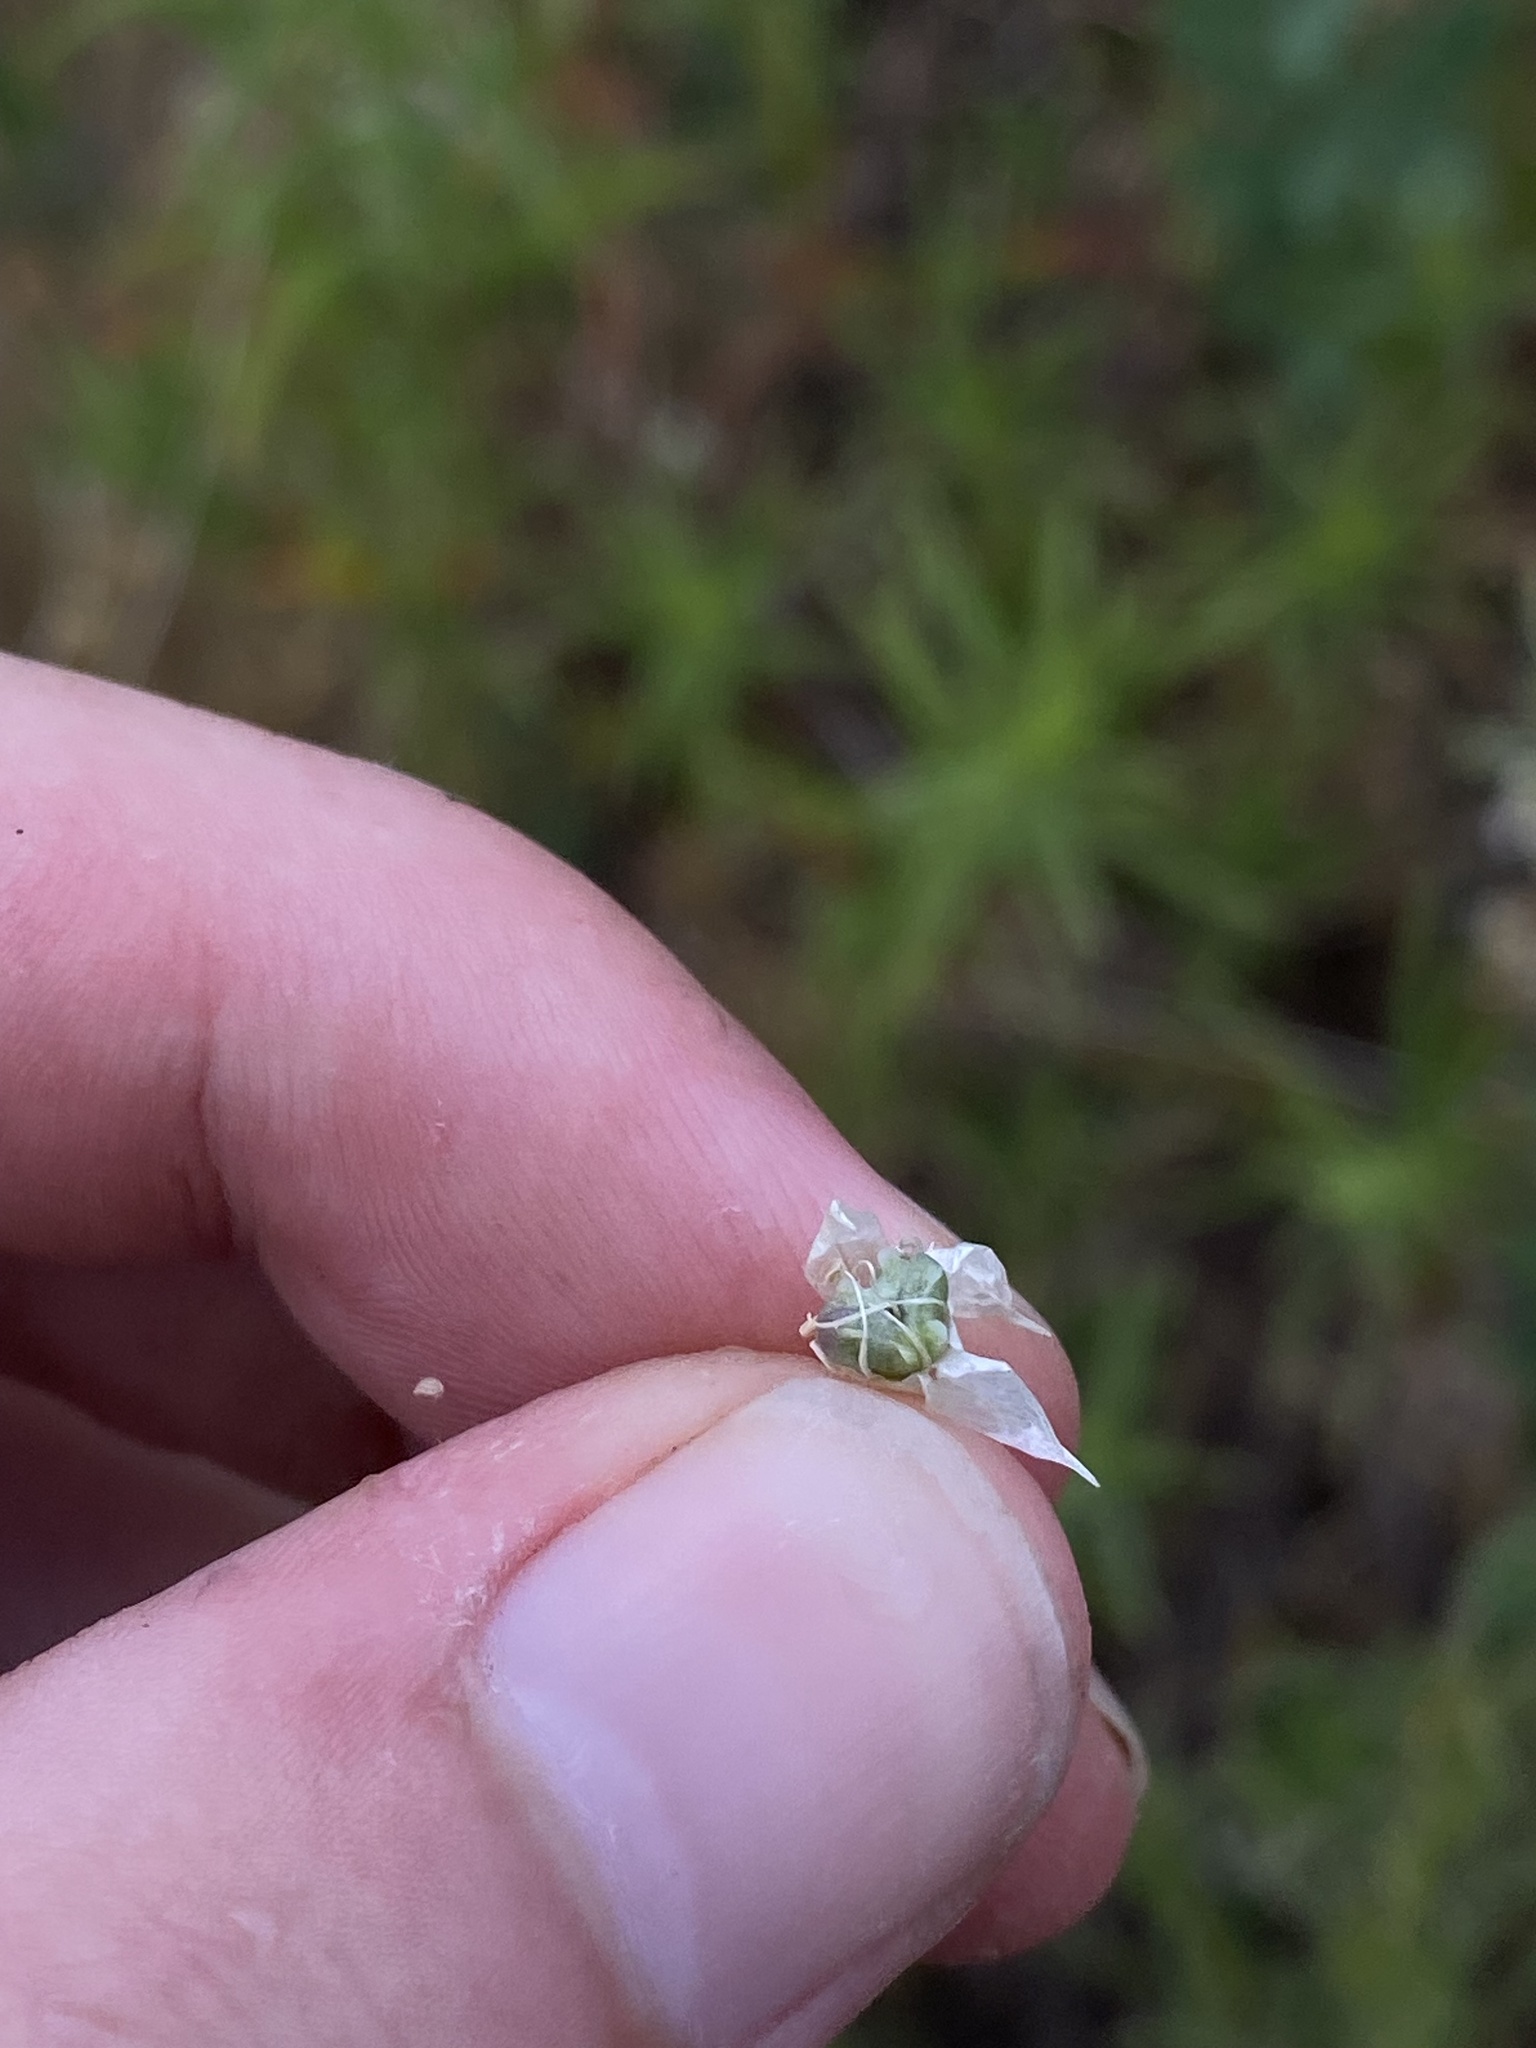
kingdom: Plantae
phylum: Tracheophyta
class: Liliopsida
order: Asparagales
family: Amaryllidaceae
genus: Allium
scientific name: Allium amplectens
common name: Narrow-leaved onion
